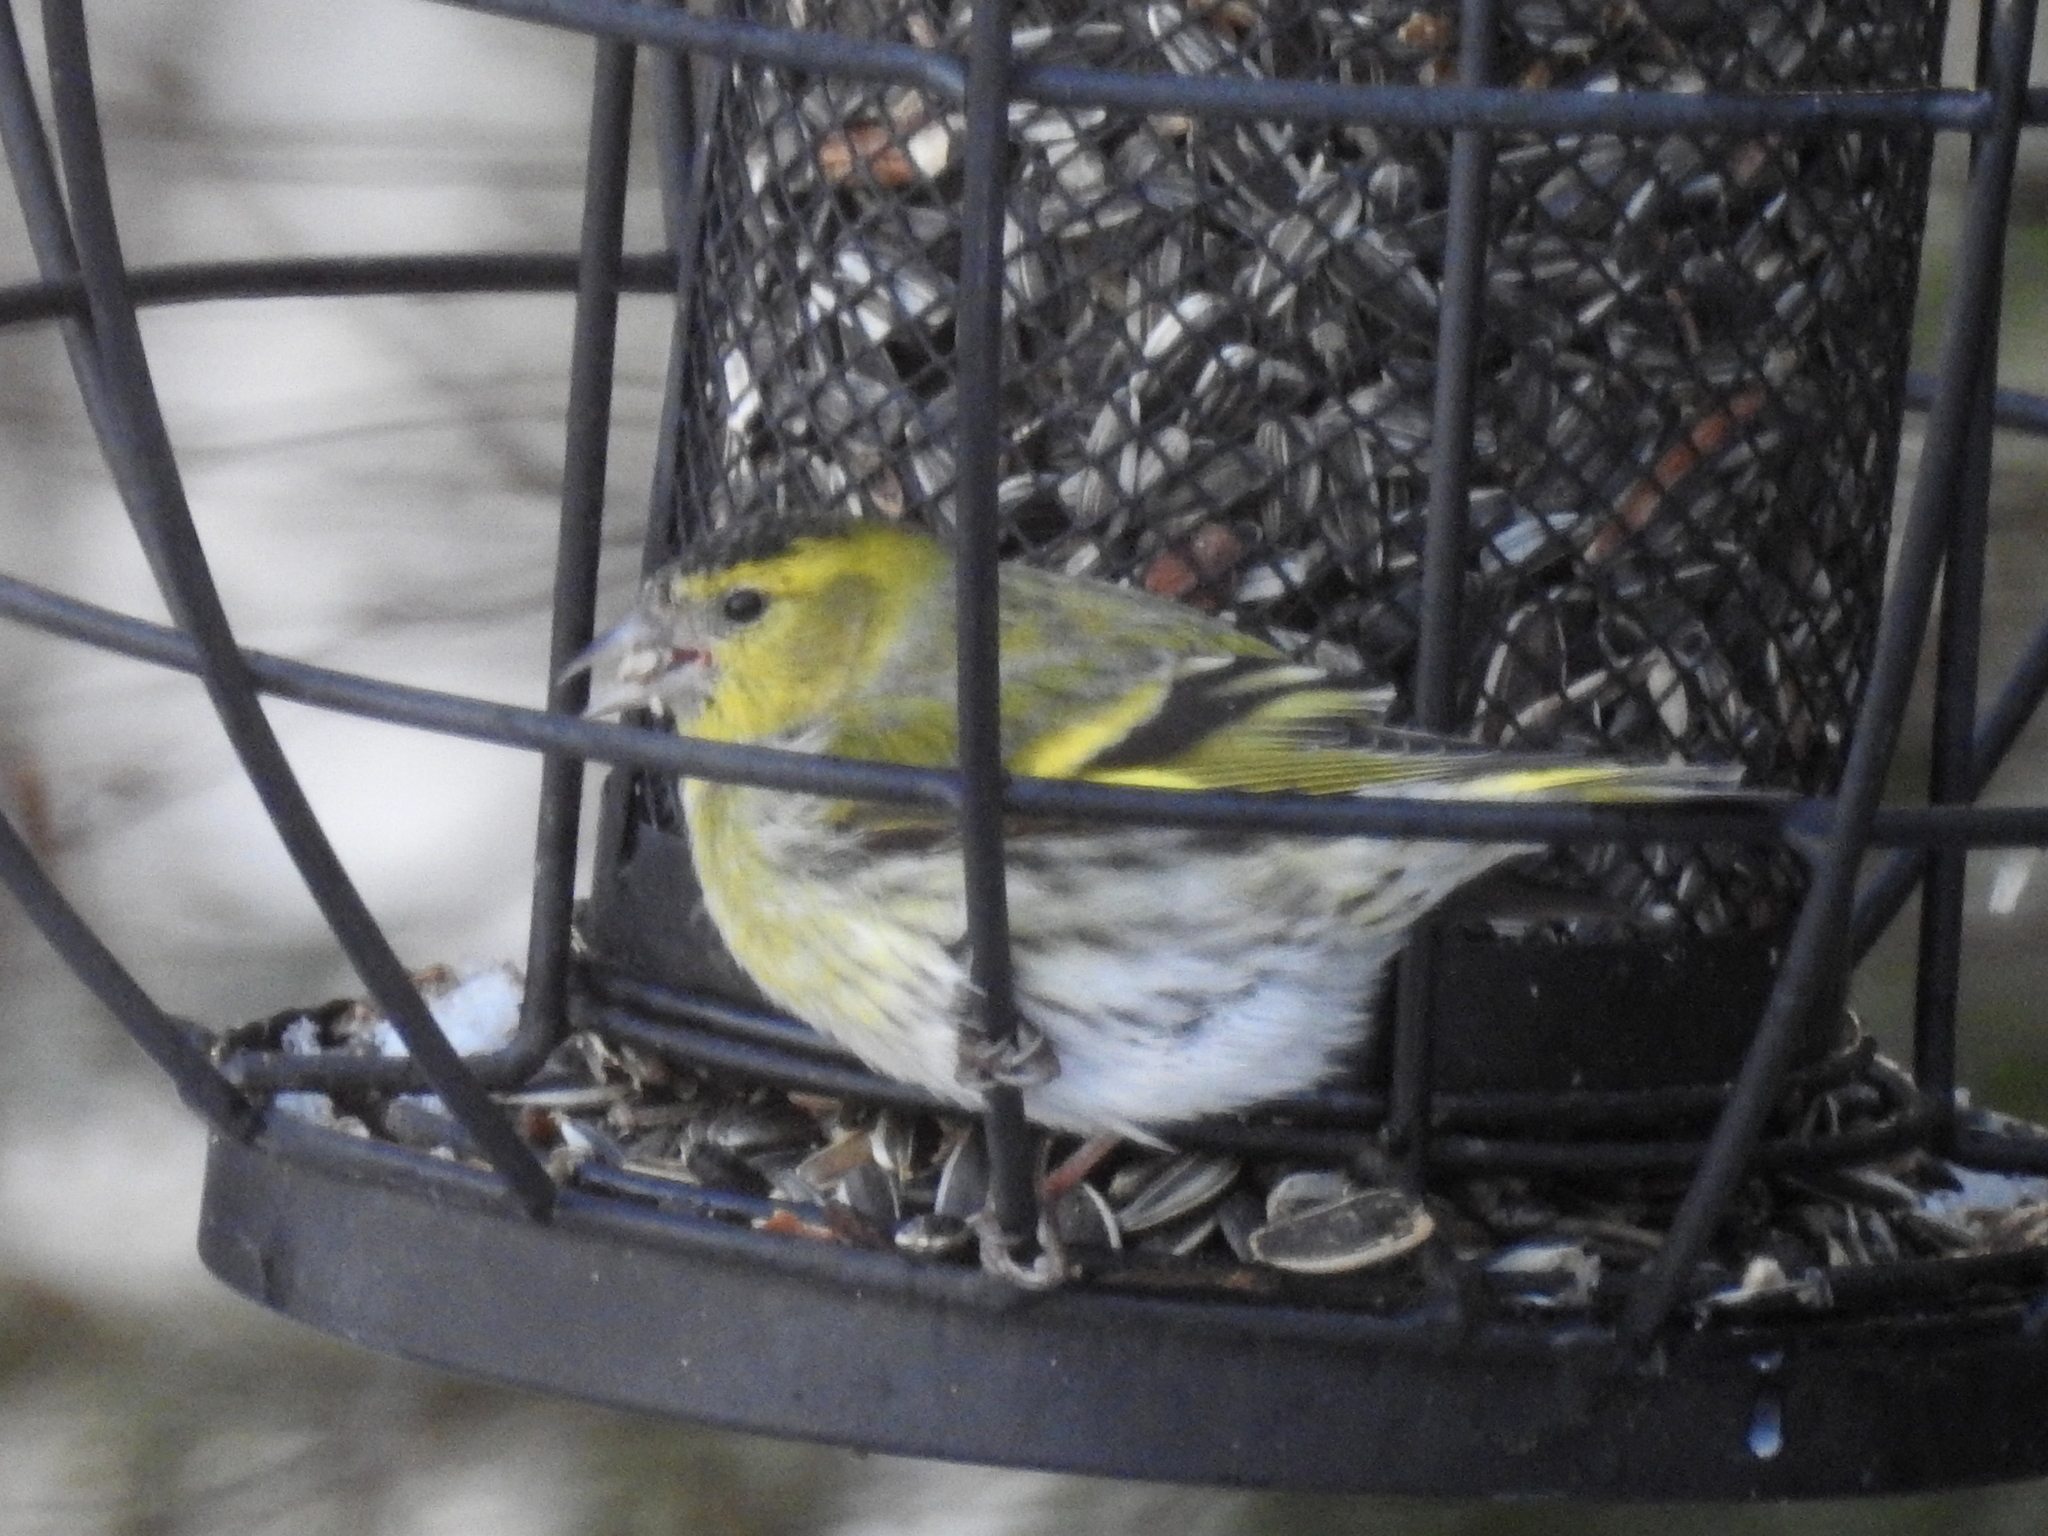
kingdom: Animalia
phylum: Chordata
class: Aves
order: Passeriformes
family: Fringillidae
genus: Spinus
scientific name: Spinus spinus
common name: Eurasian siskin
